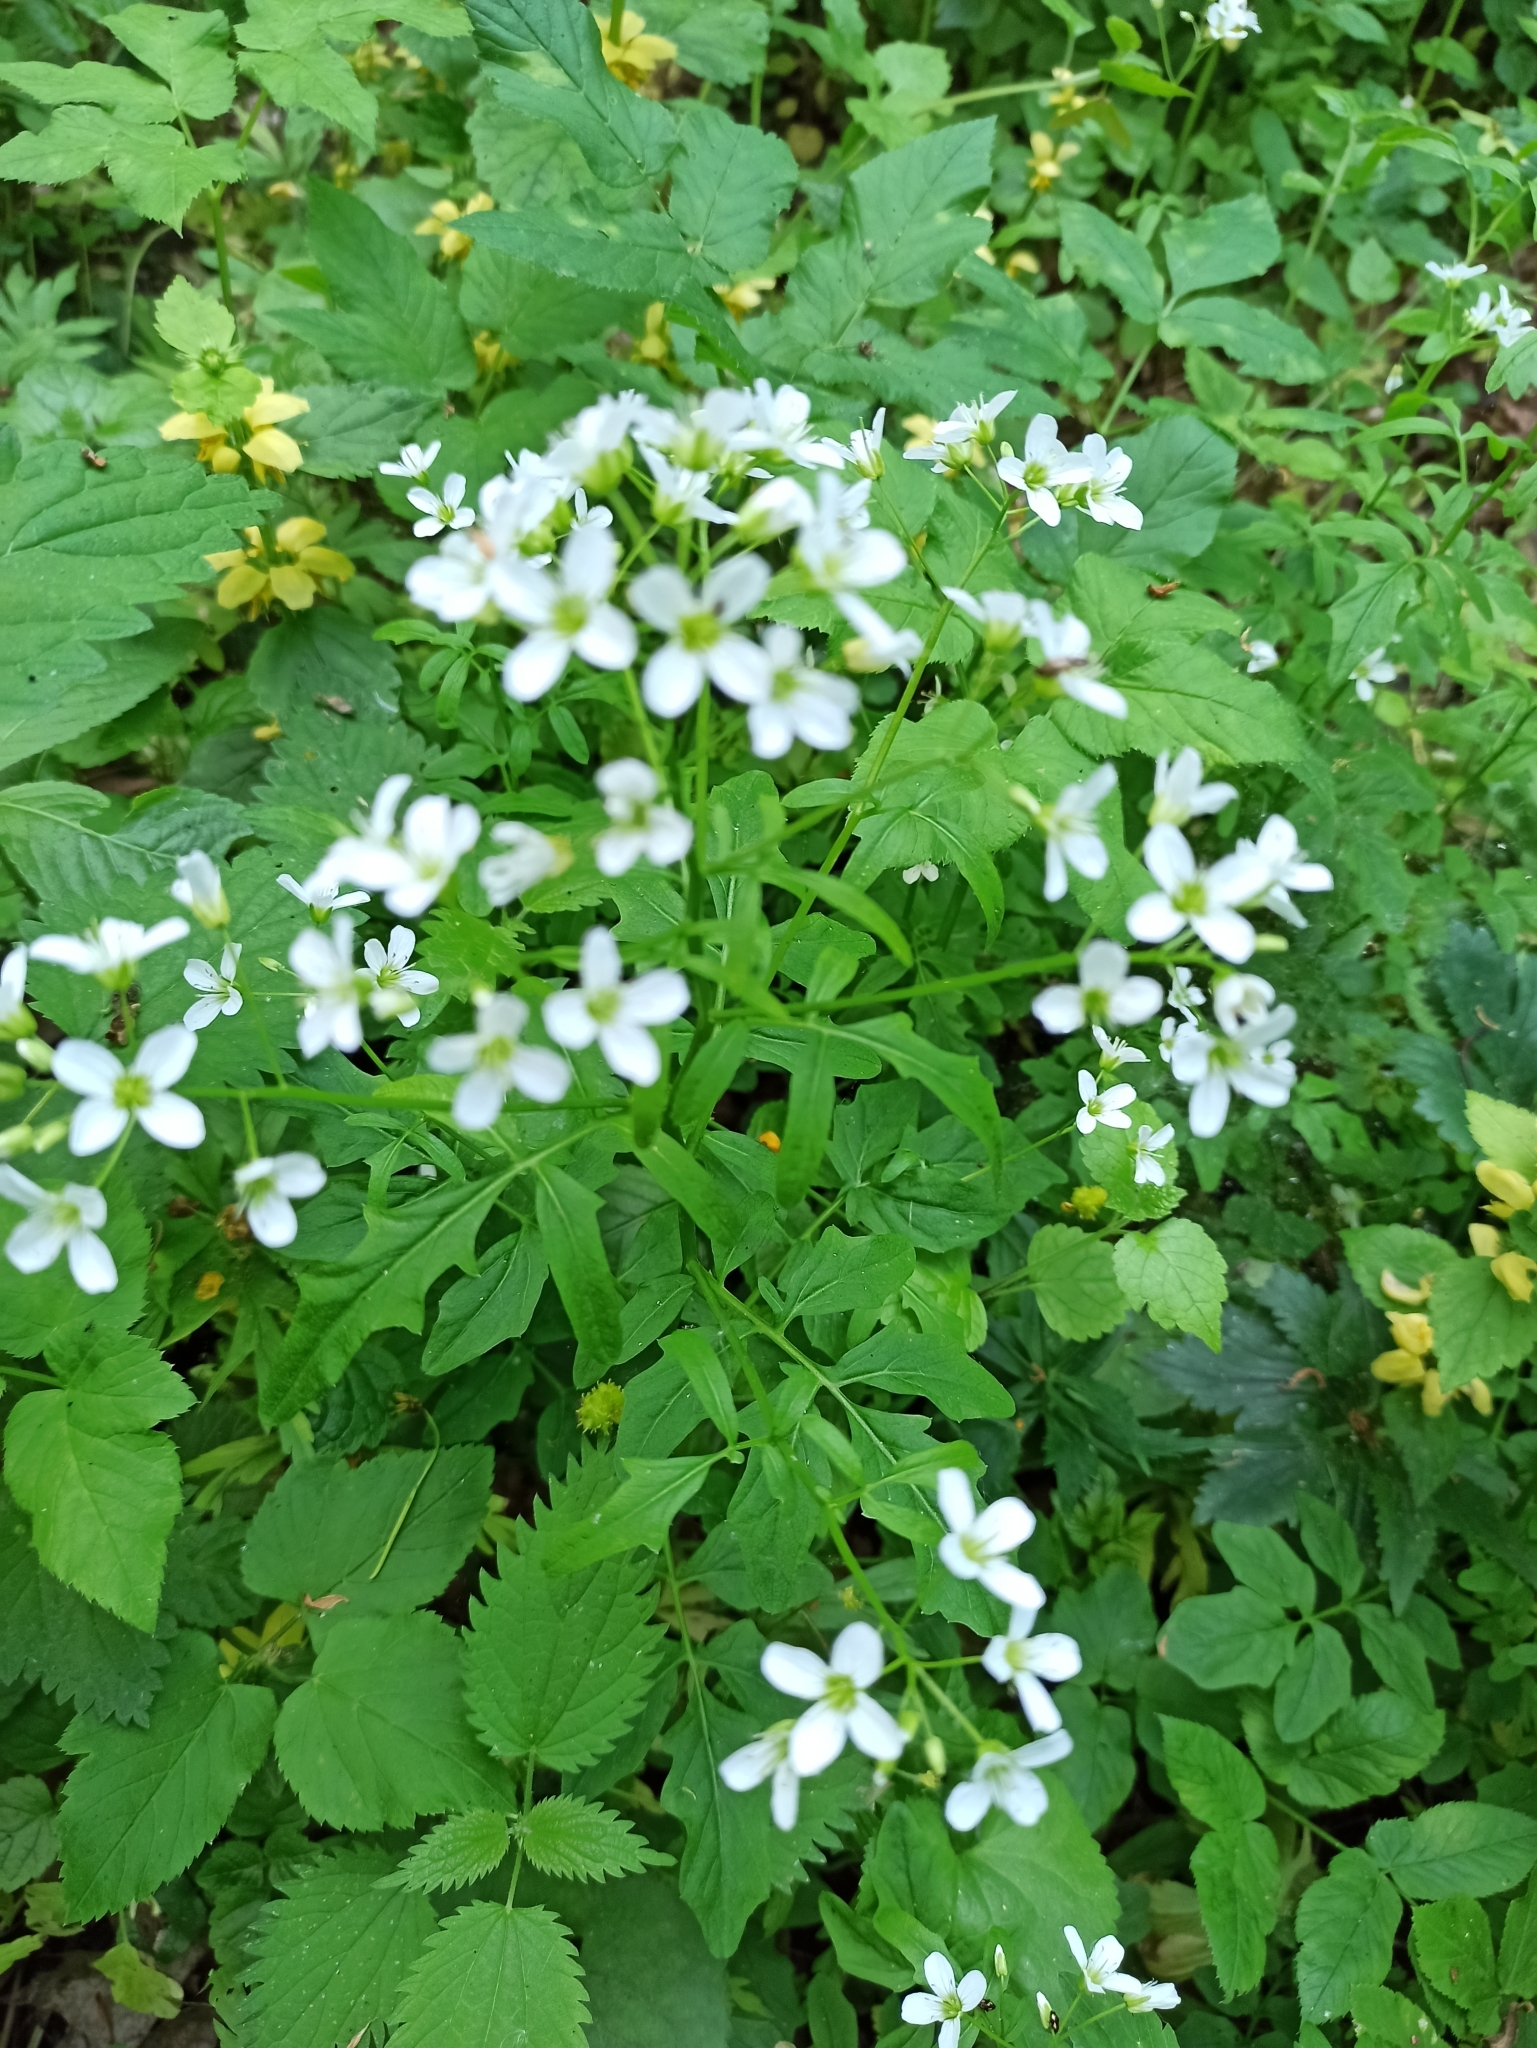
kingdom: Plantae
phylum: Tracheophyta
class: Magnoliopsida
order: Brassicales
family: Brassicaceae
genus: Cardamine
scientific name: Cardamine amara
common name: Large bitter-cress
